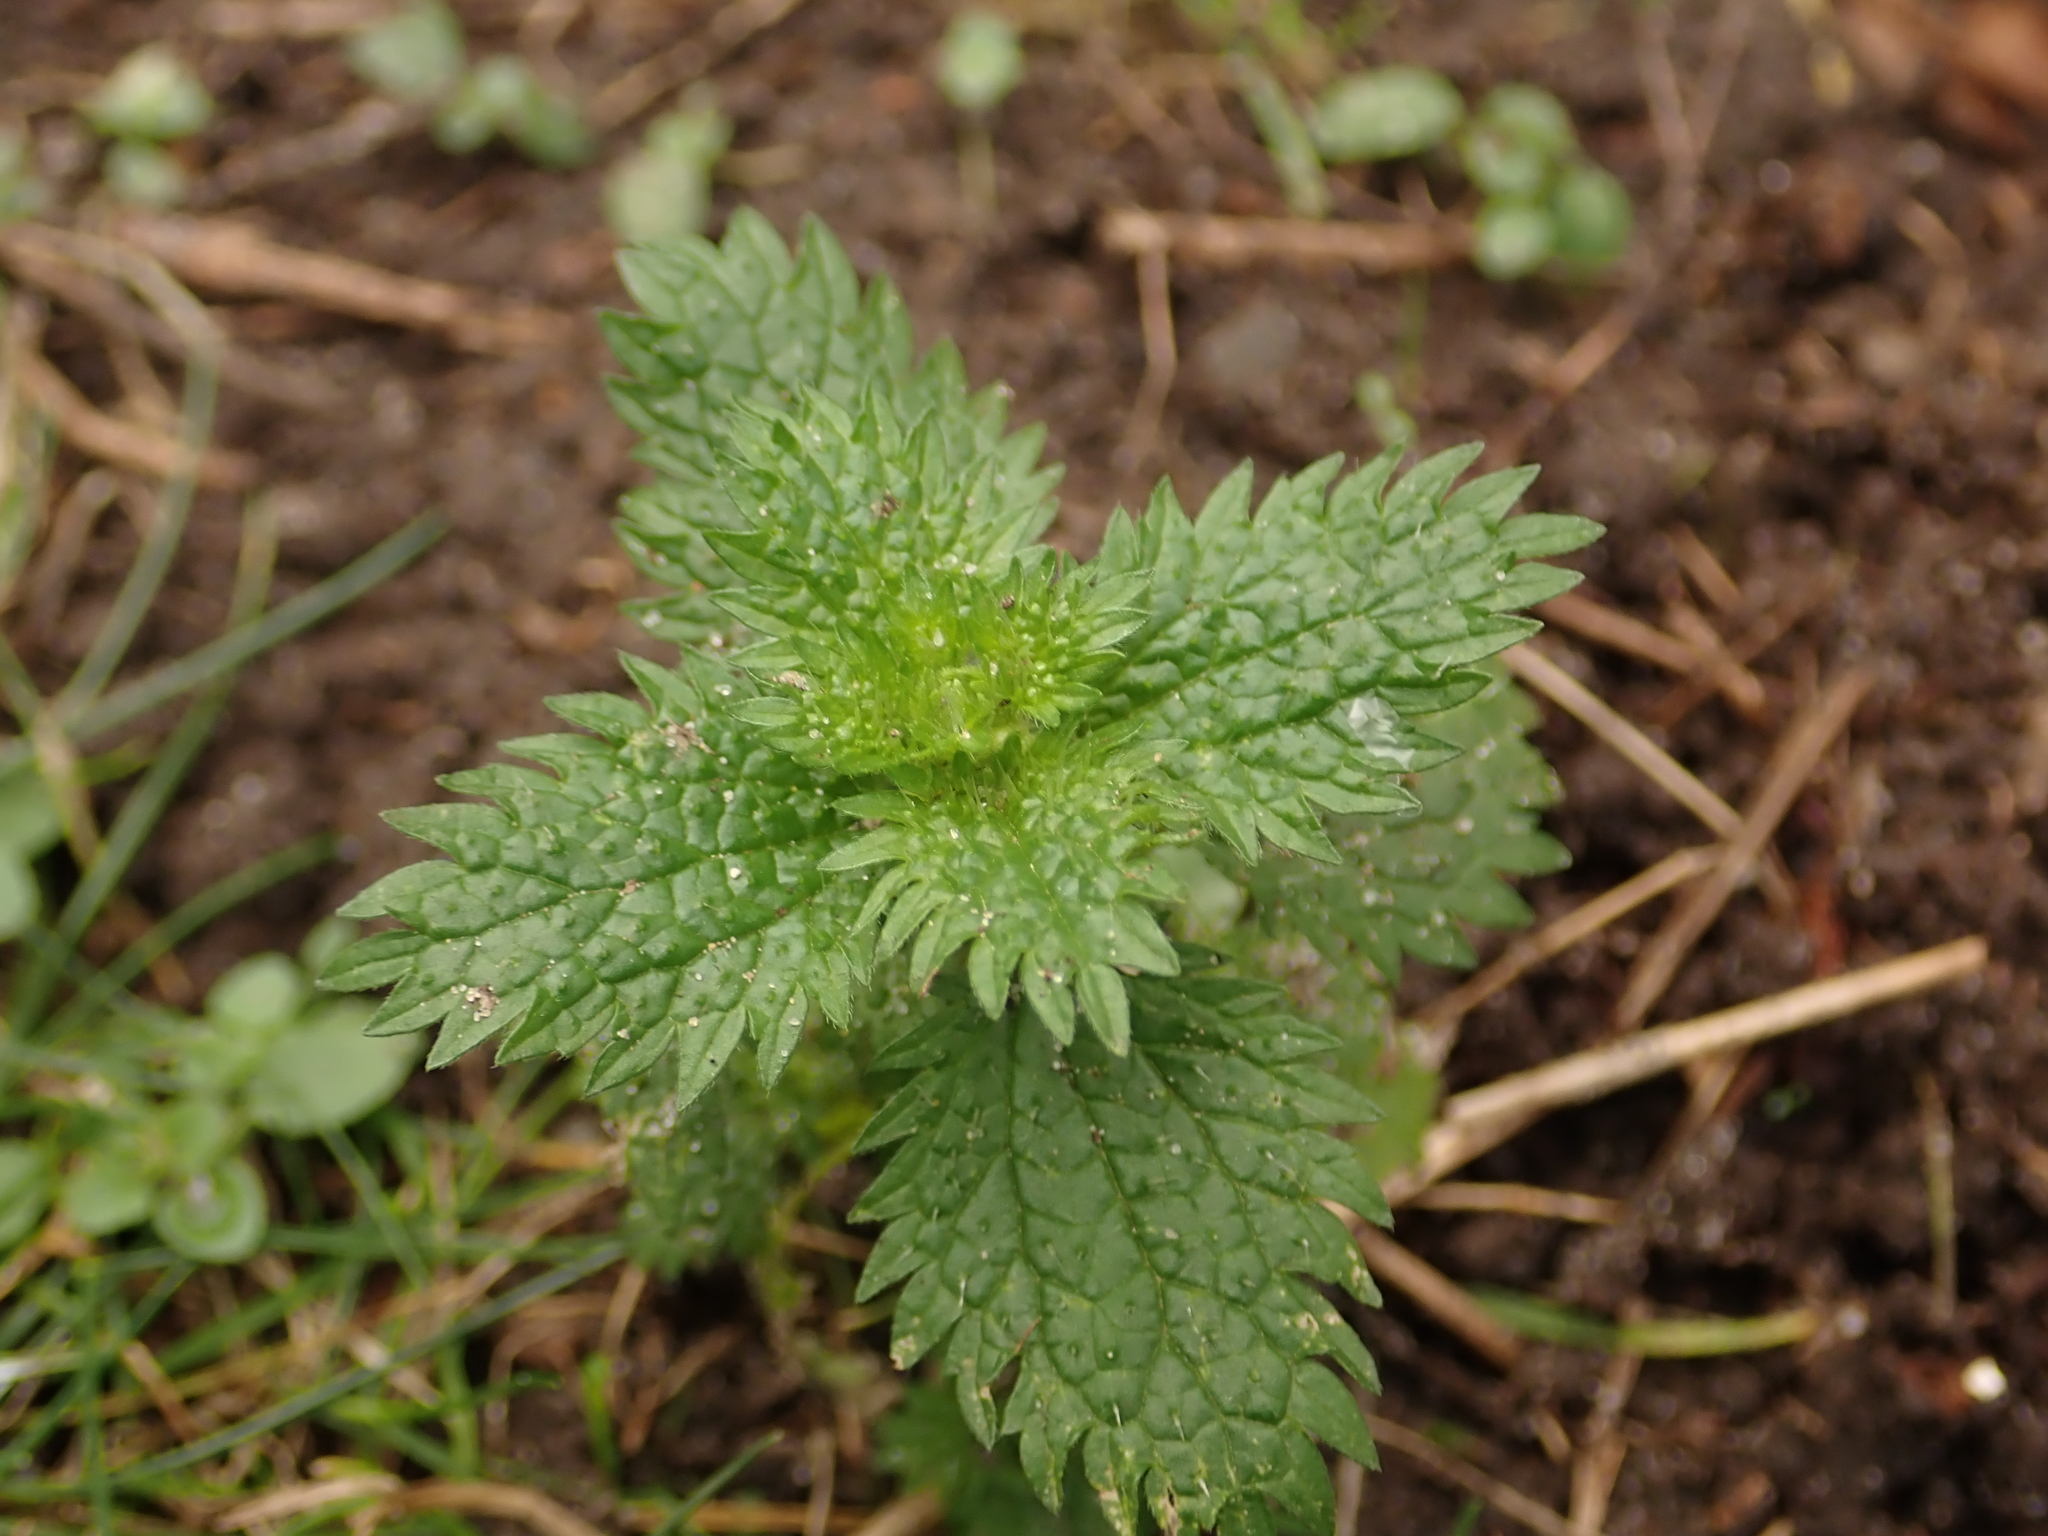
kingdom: Plantae
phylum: Tracheophyta
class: Magnoliopsida
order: Rosales
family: Urticaceae
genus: Urtica
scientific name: Urtica urens
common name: Dwarf nettle
